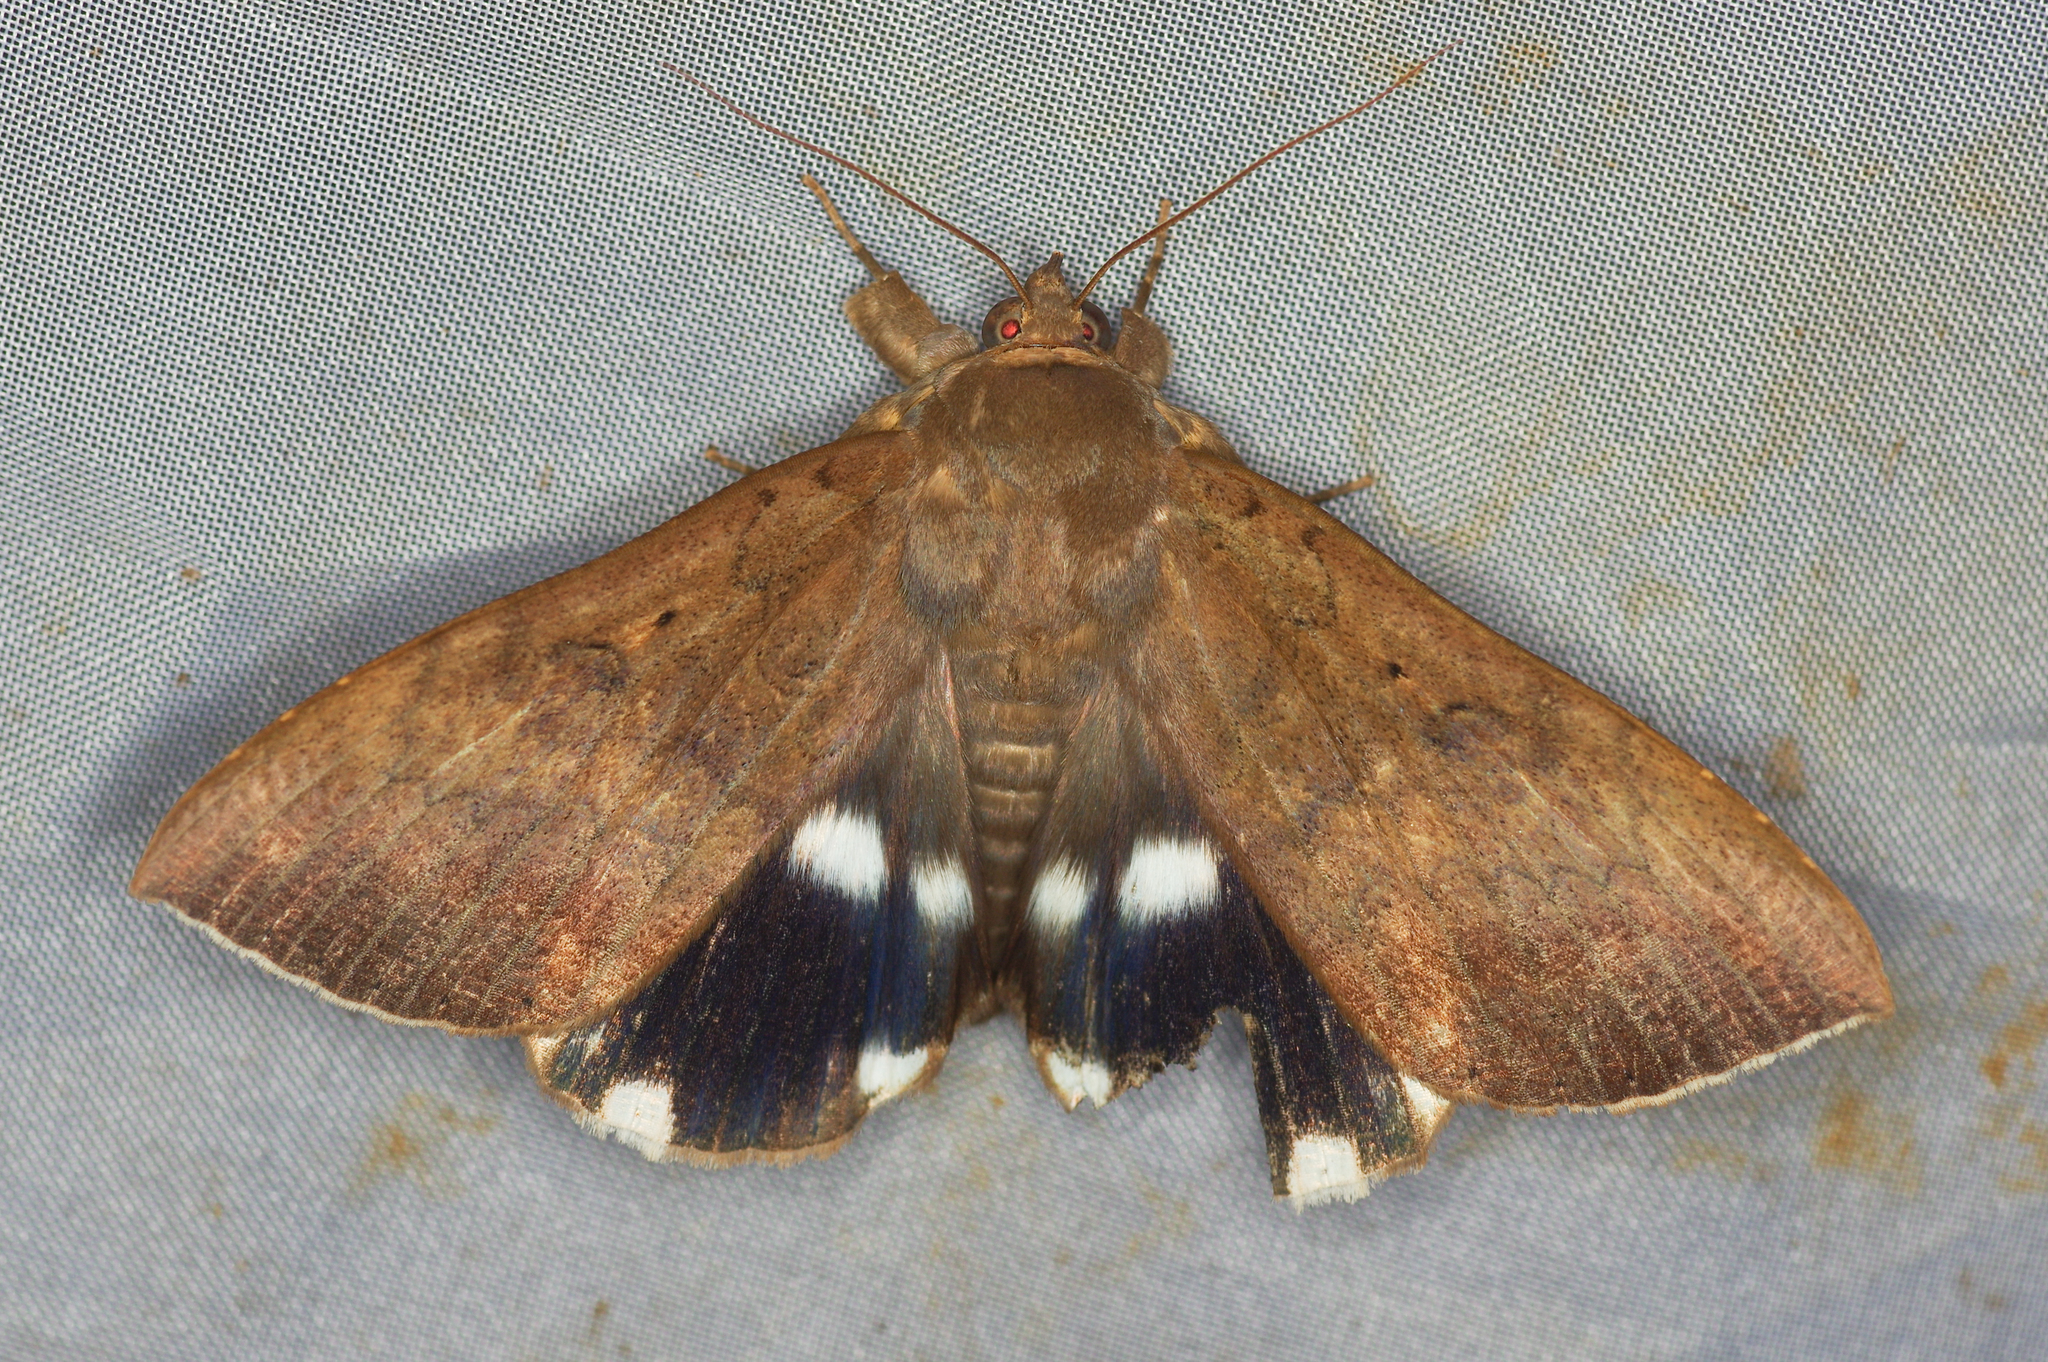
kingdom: Animalia
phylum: Arthropoda
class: Insecta
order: Lepidoptera
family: Erebidae
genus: Achaea
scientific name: Achaea serva
